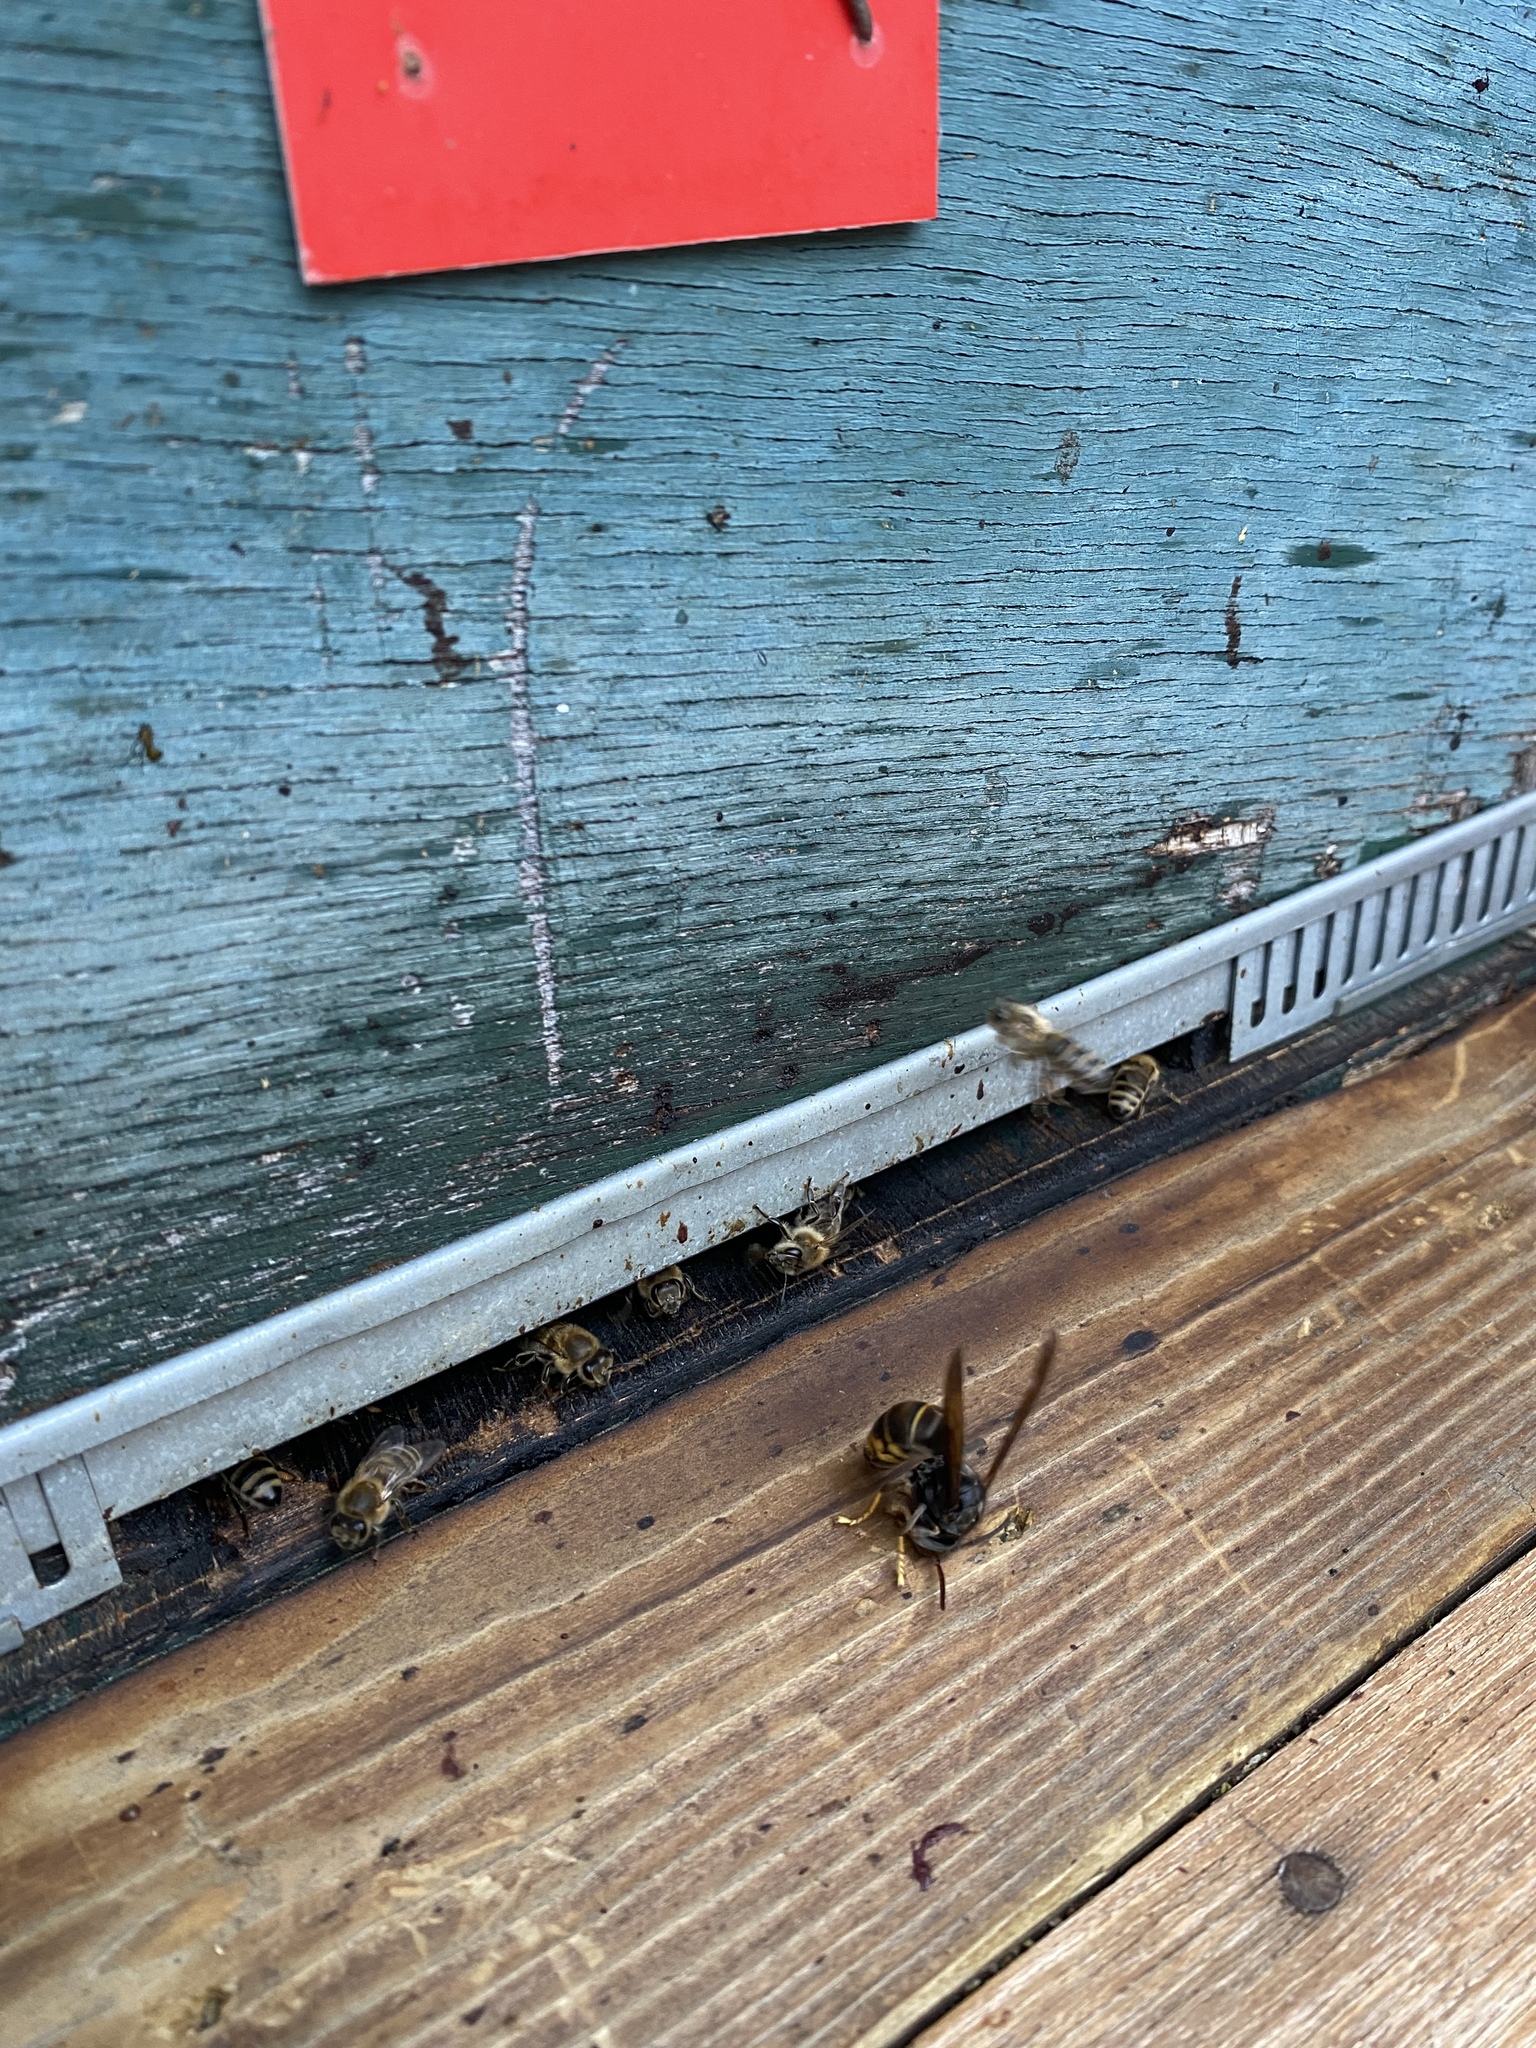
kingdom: Animalia
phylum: Arthropoda
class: Insecta
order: Hymenoptera
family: Vespidae
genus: Vespa
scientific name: Vespa velutina
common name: Asian hornet
